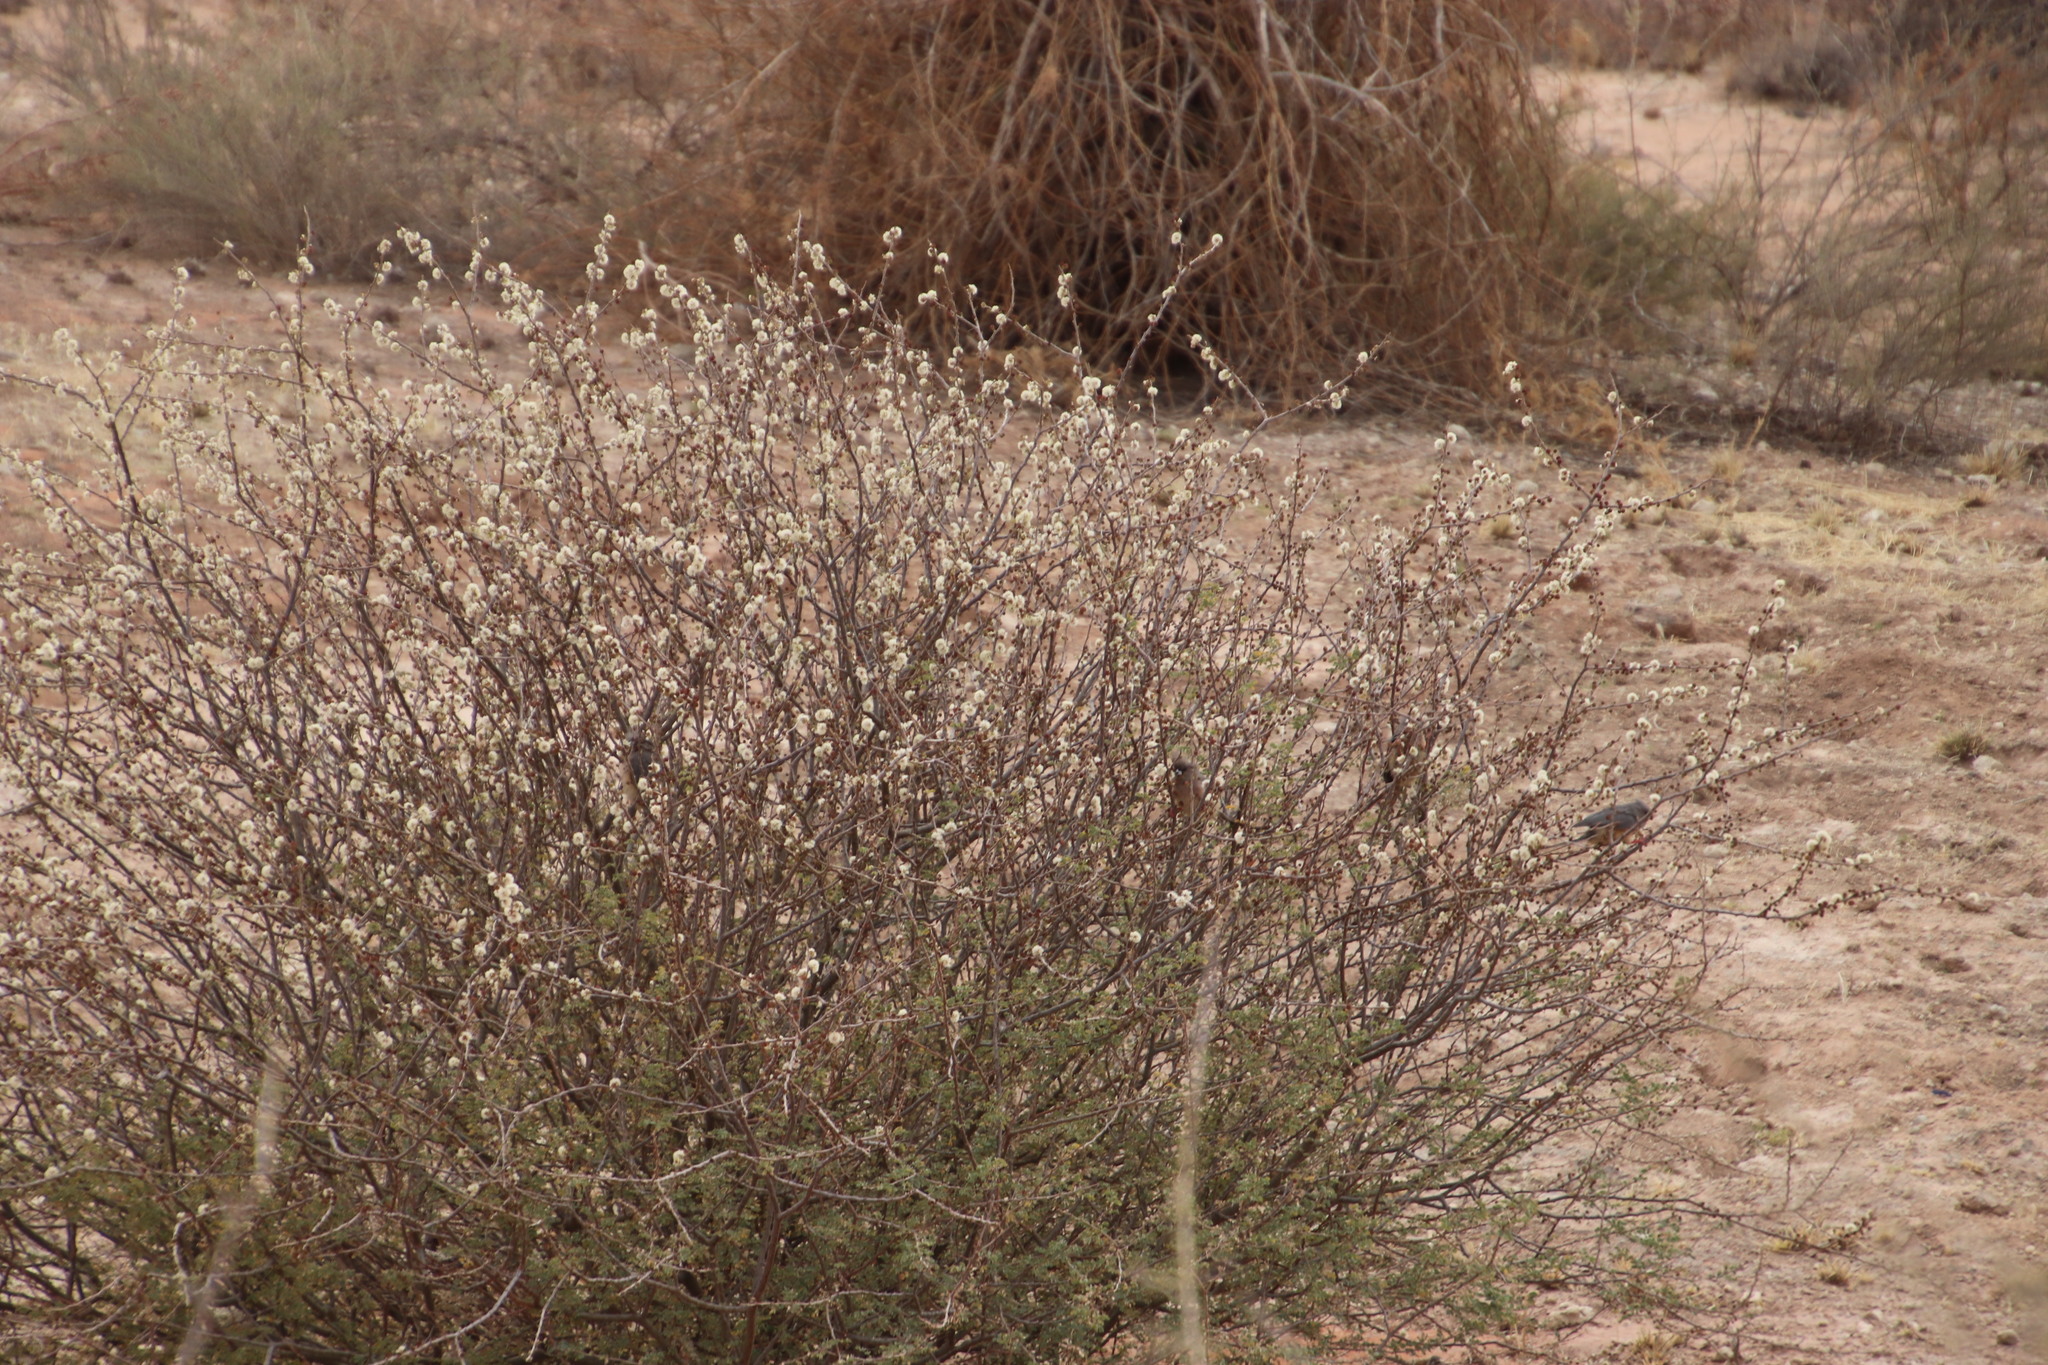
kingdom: Plantae
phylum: Tracheophyta
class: Magnoliopsida
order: Fabales
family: Fabaceae
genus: Senegalia
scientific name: Senegalia mellifera
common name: Hookthorn
